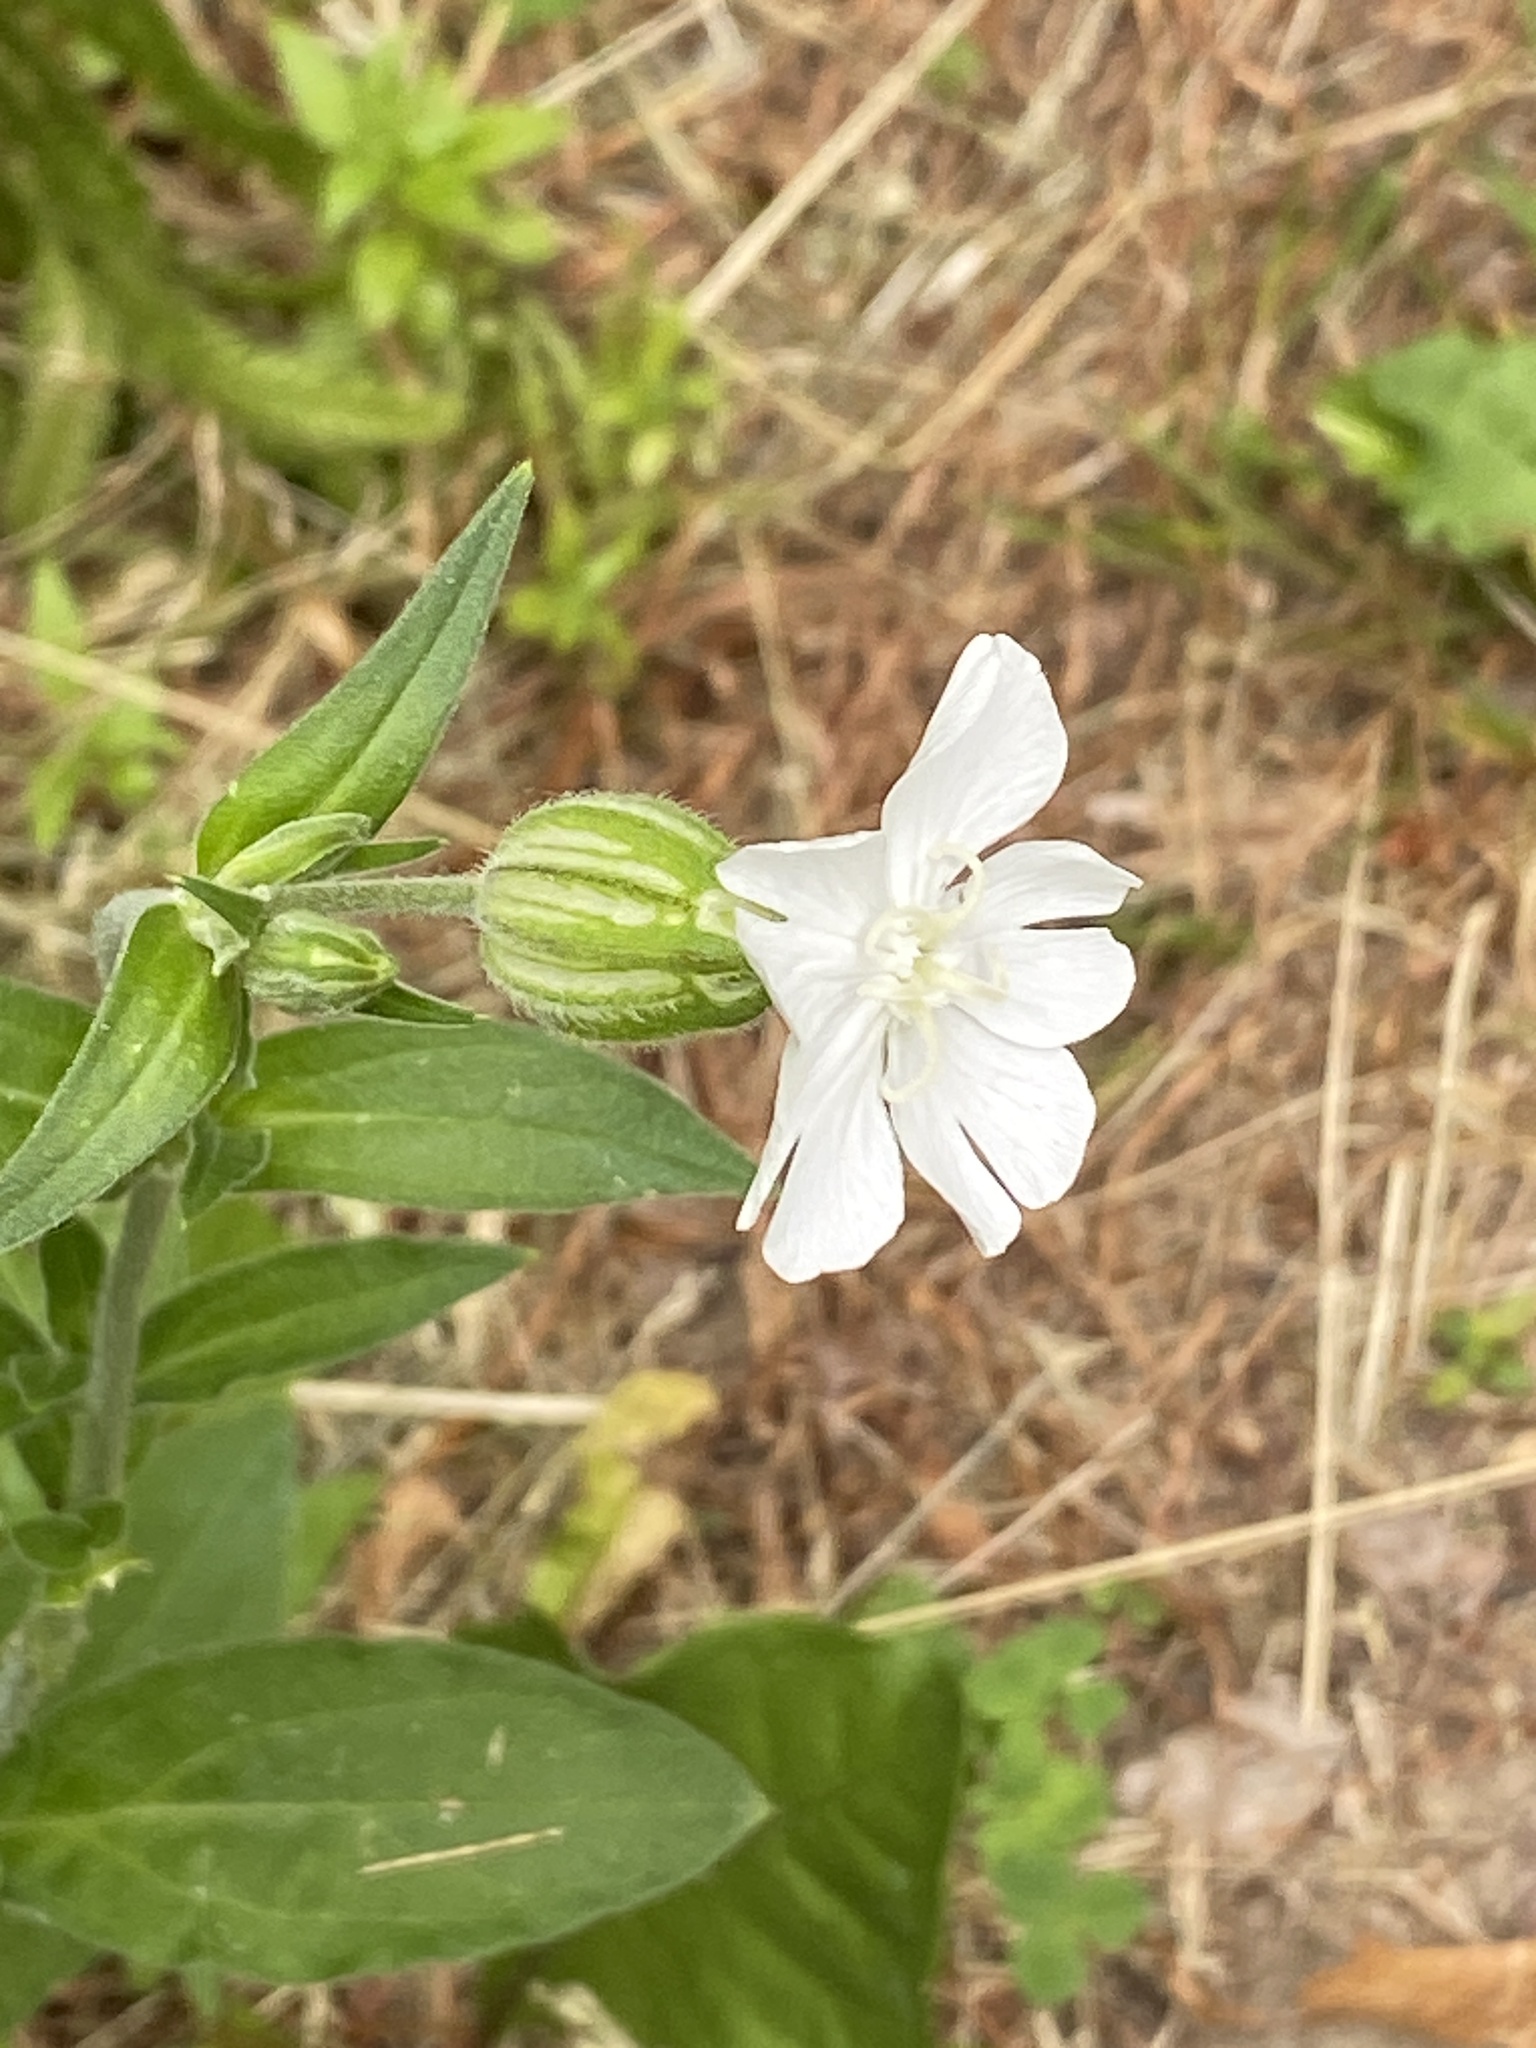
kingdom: Plantae
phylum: Tracheophyta
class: Magnoliopsida
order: Caryophyllales
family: Caryophyllaceae
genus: Silene
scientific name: Silene latifolia
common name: White campion
